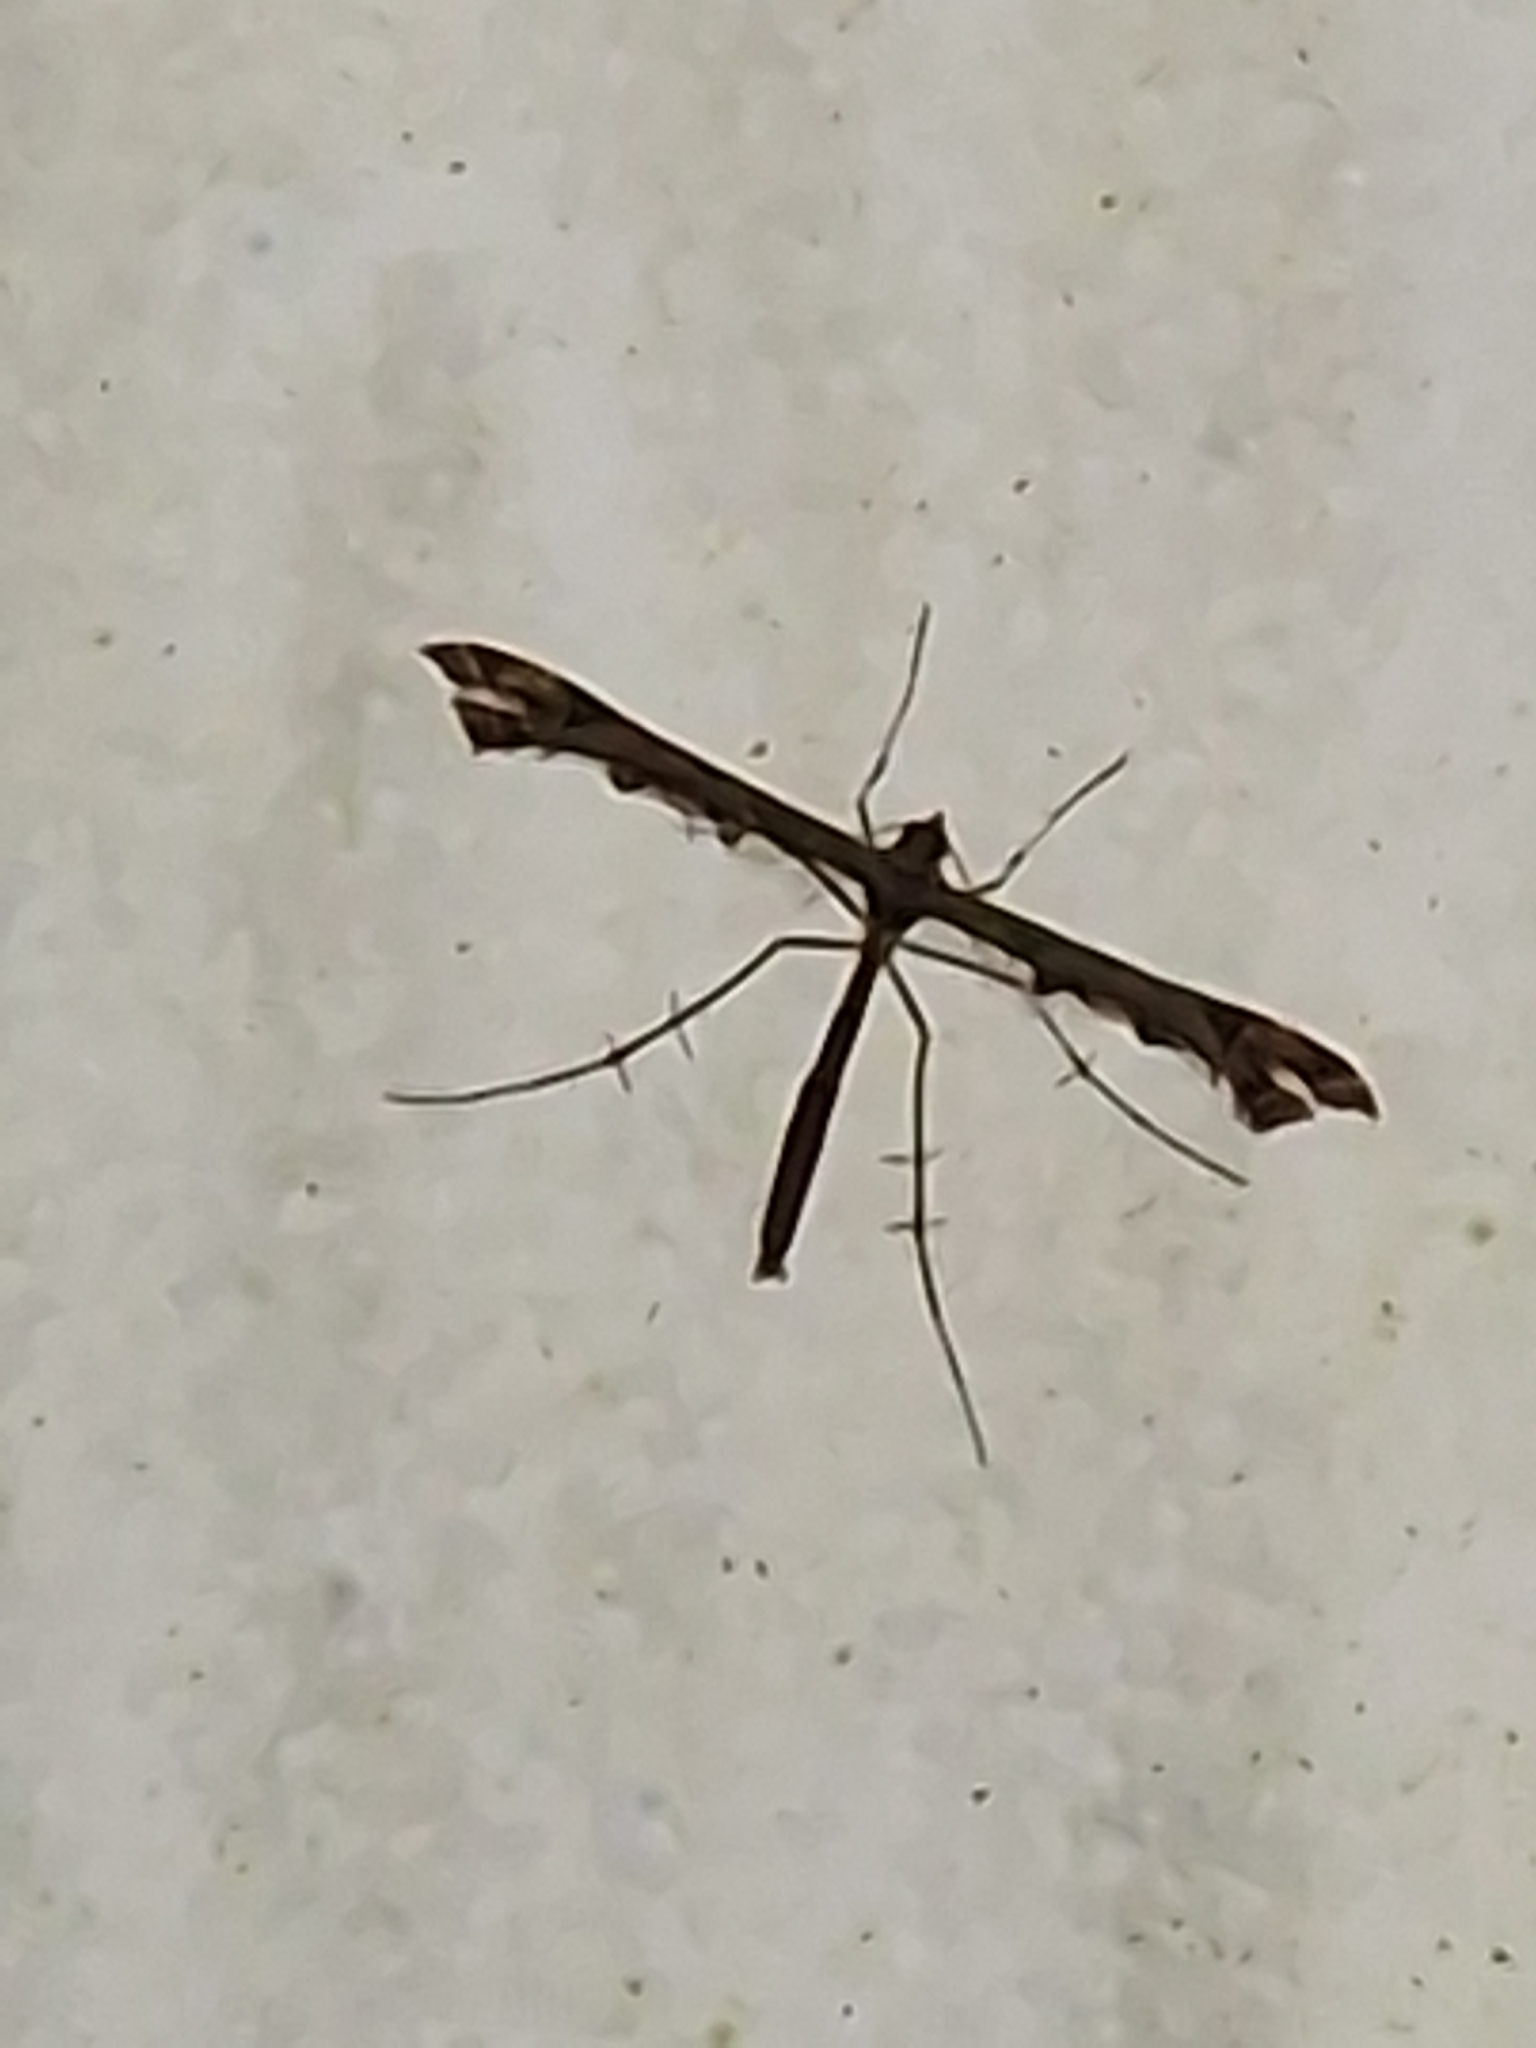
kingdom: Animalia
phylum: Arthropoda
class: Insecta
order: Lepidoptera
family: Pterophoridae
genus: Amblyptilia
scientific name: Amblyptilia acanthadactyla
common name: Beautiful plume
